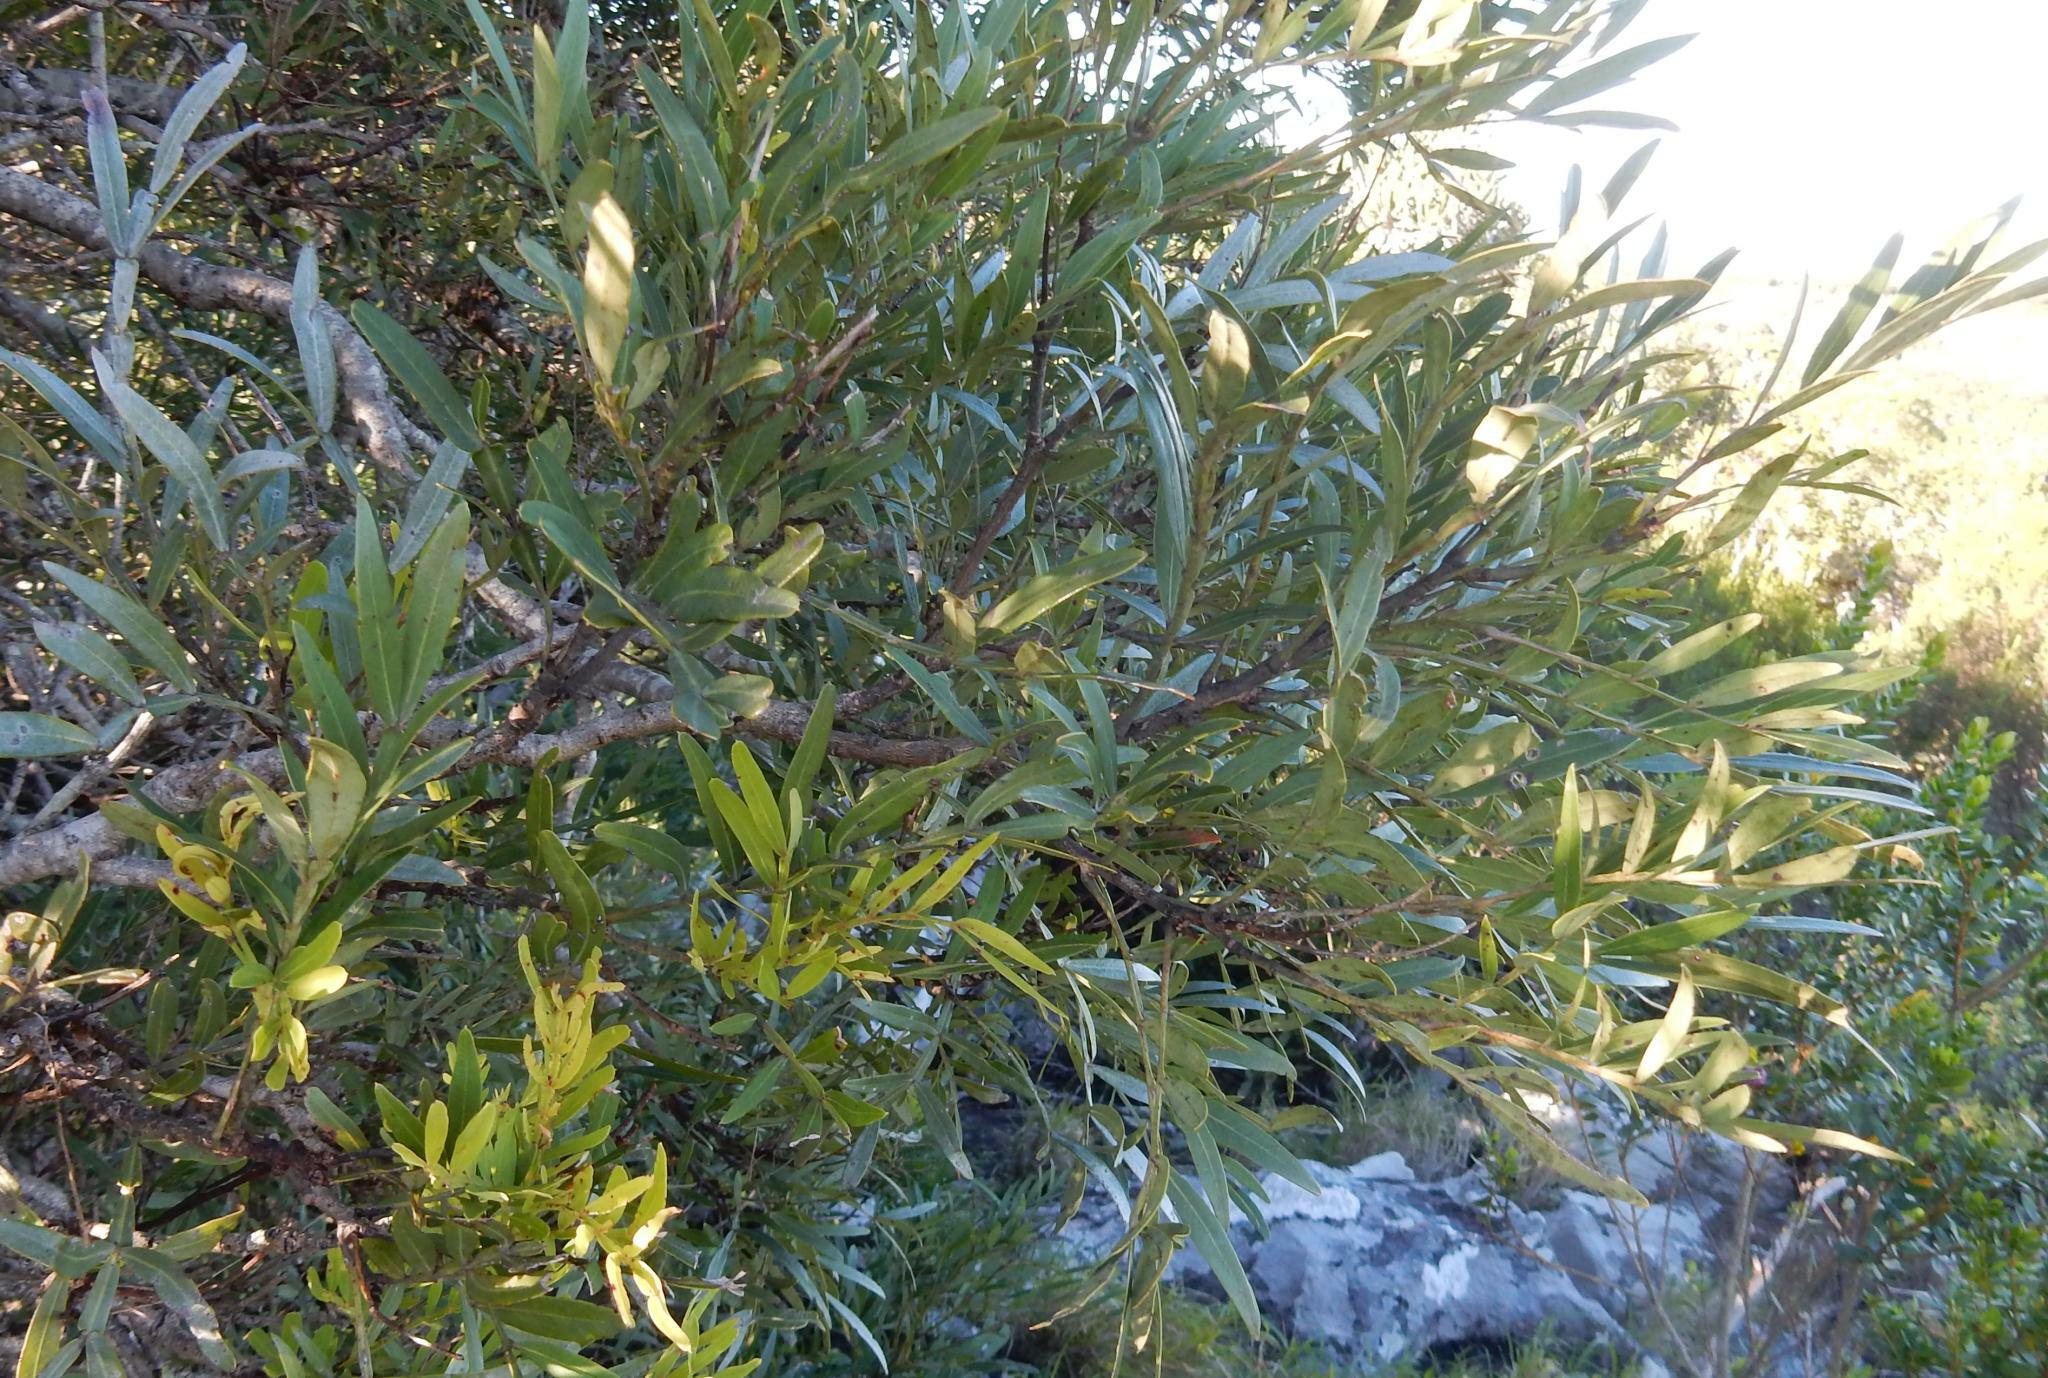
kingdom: Plantae
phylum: Tracheophyta
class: Magnoliopsida
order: Sapindales
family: Anacardiaceae
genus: Loxostylis
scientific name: Loxostylis alata
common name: Wild peppertree
